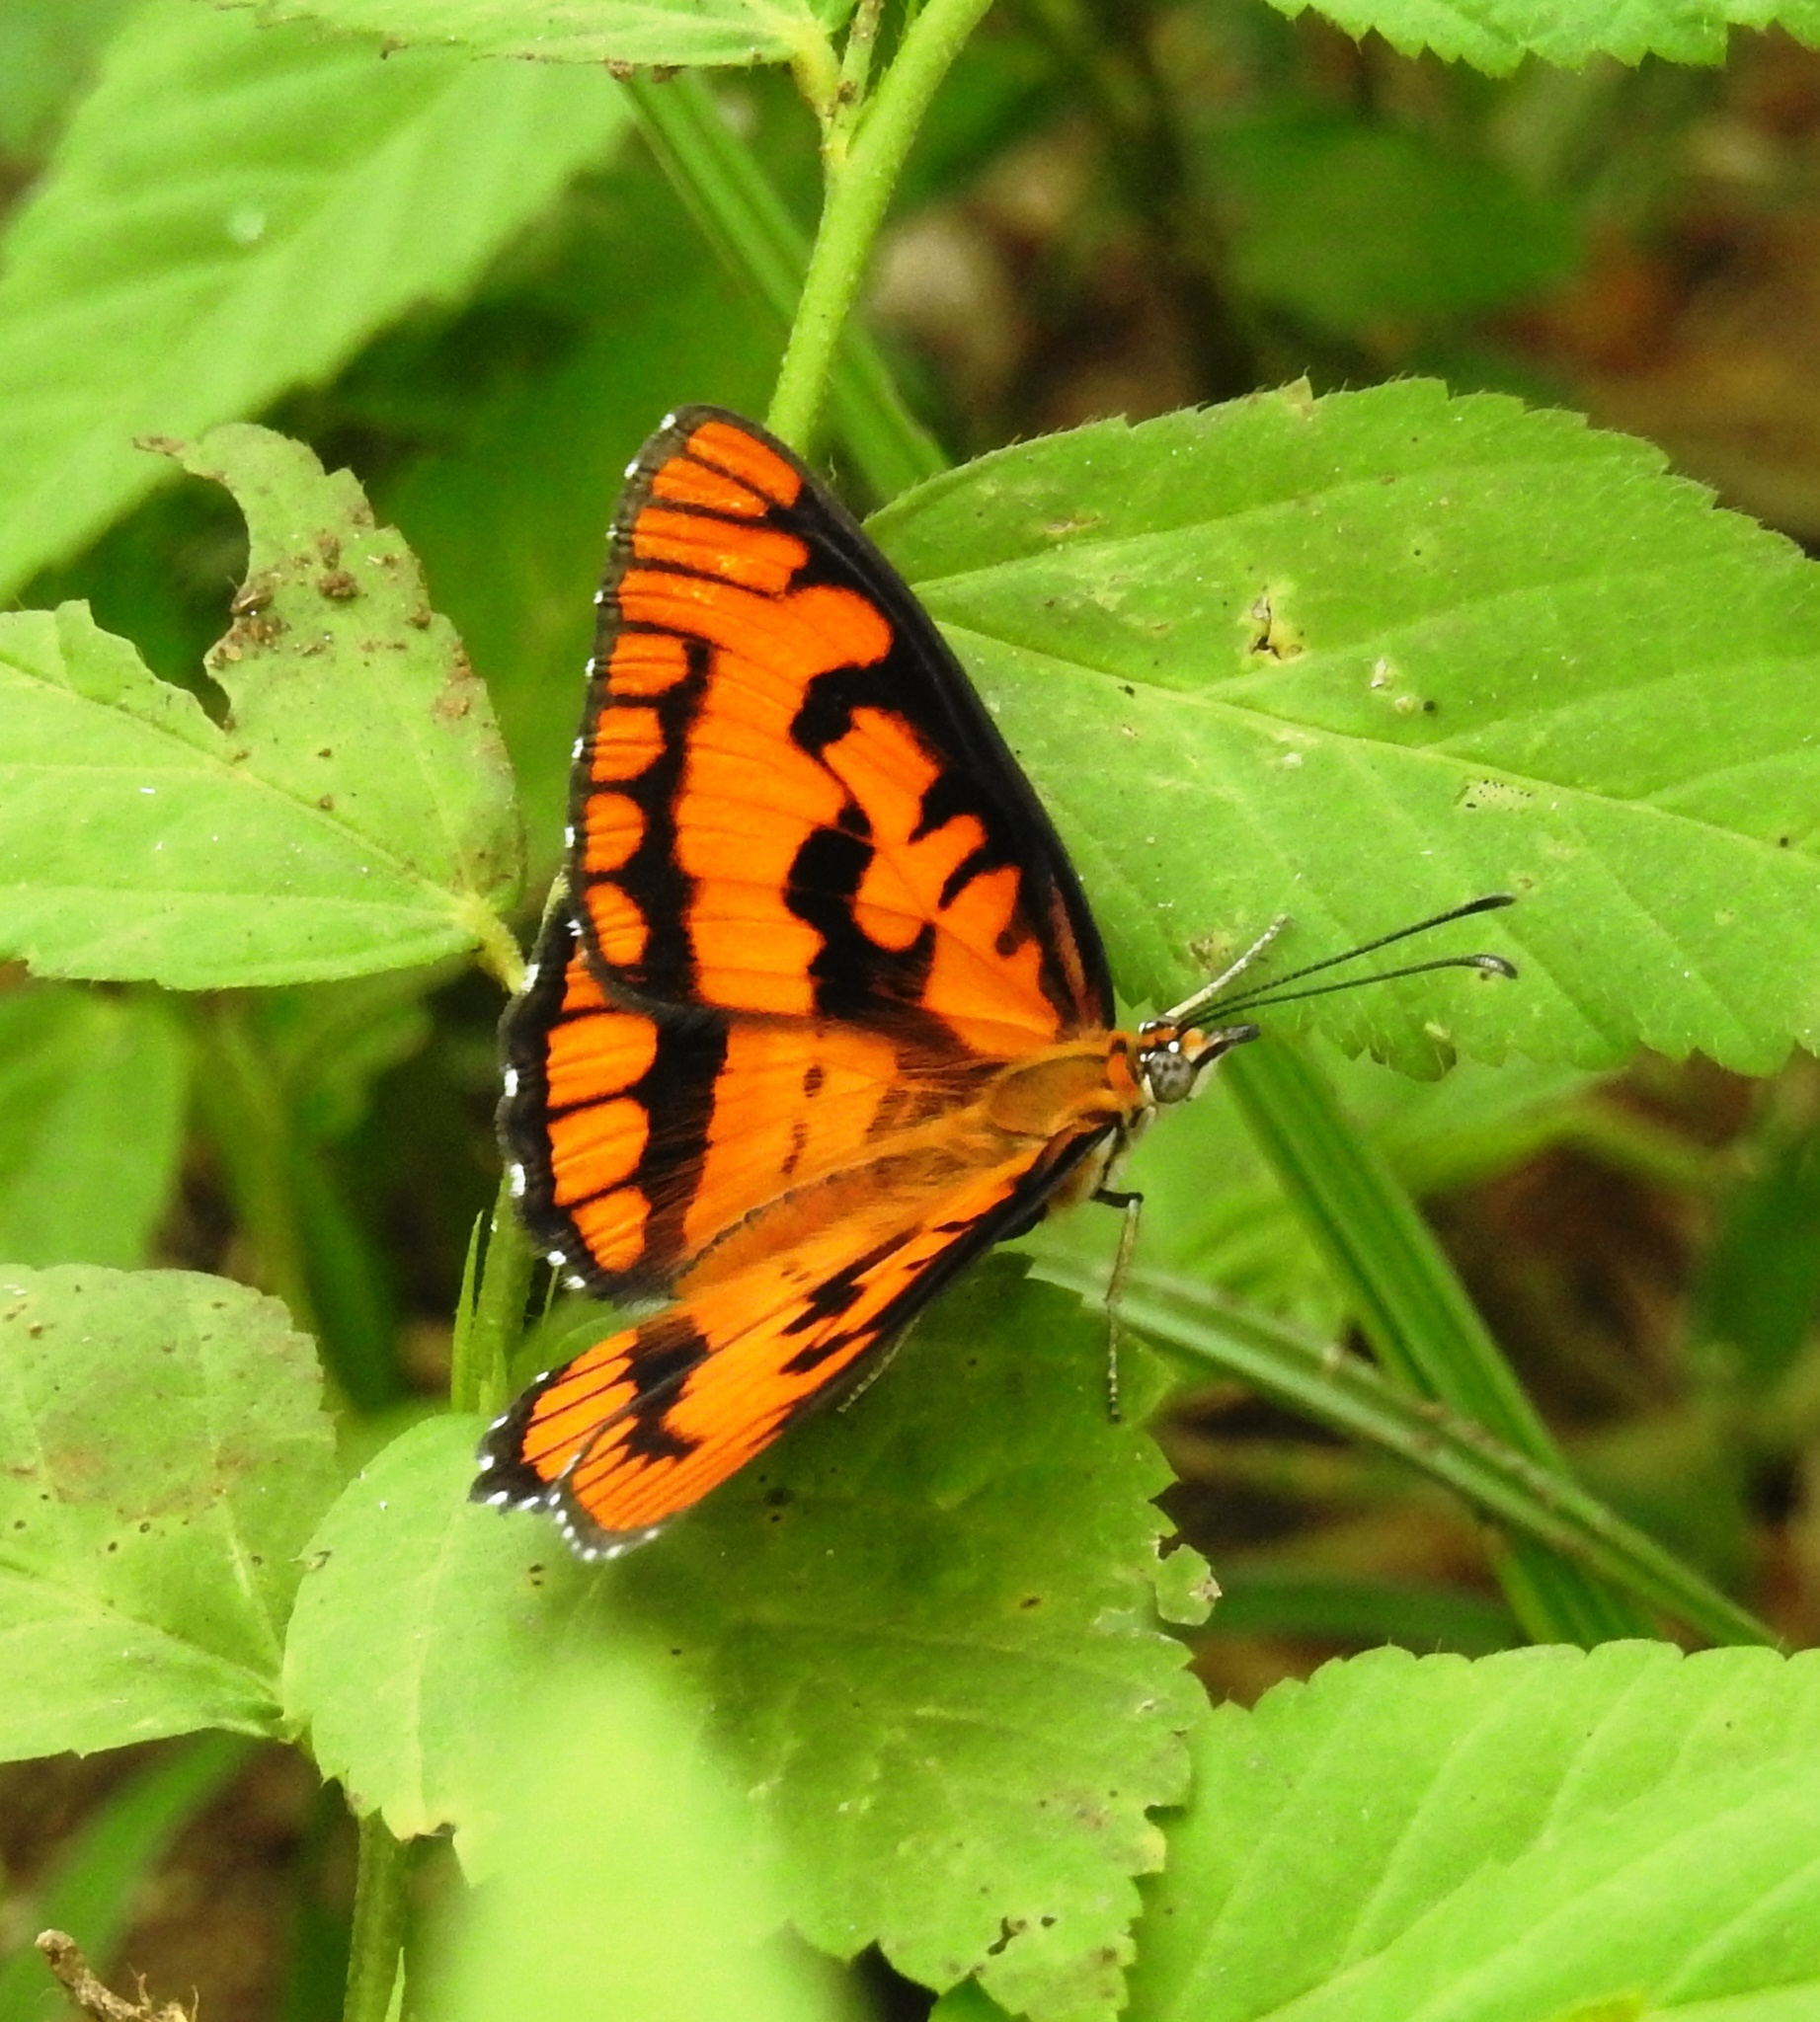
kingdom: Animalia
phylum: Arthropoda
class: Insecta
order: Lepidoptera
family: Nymphalidae
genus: Byblia
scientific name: Byblia ilithyia
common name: Spotted joker
